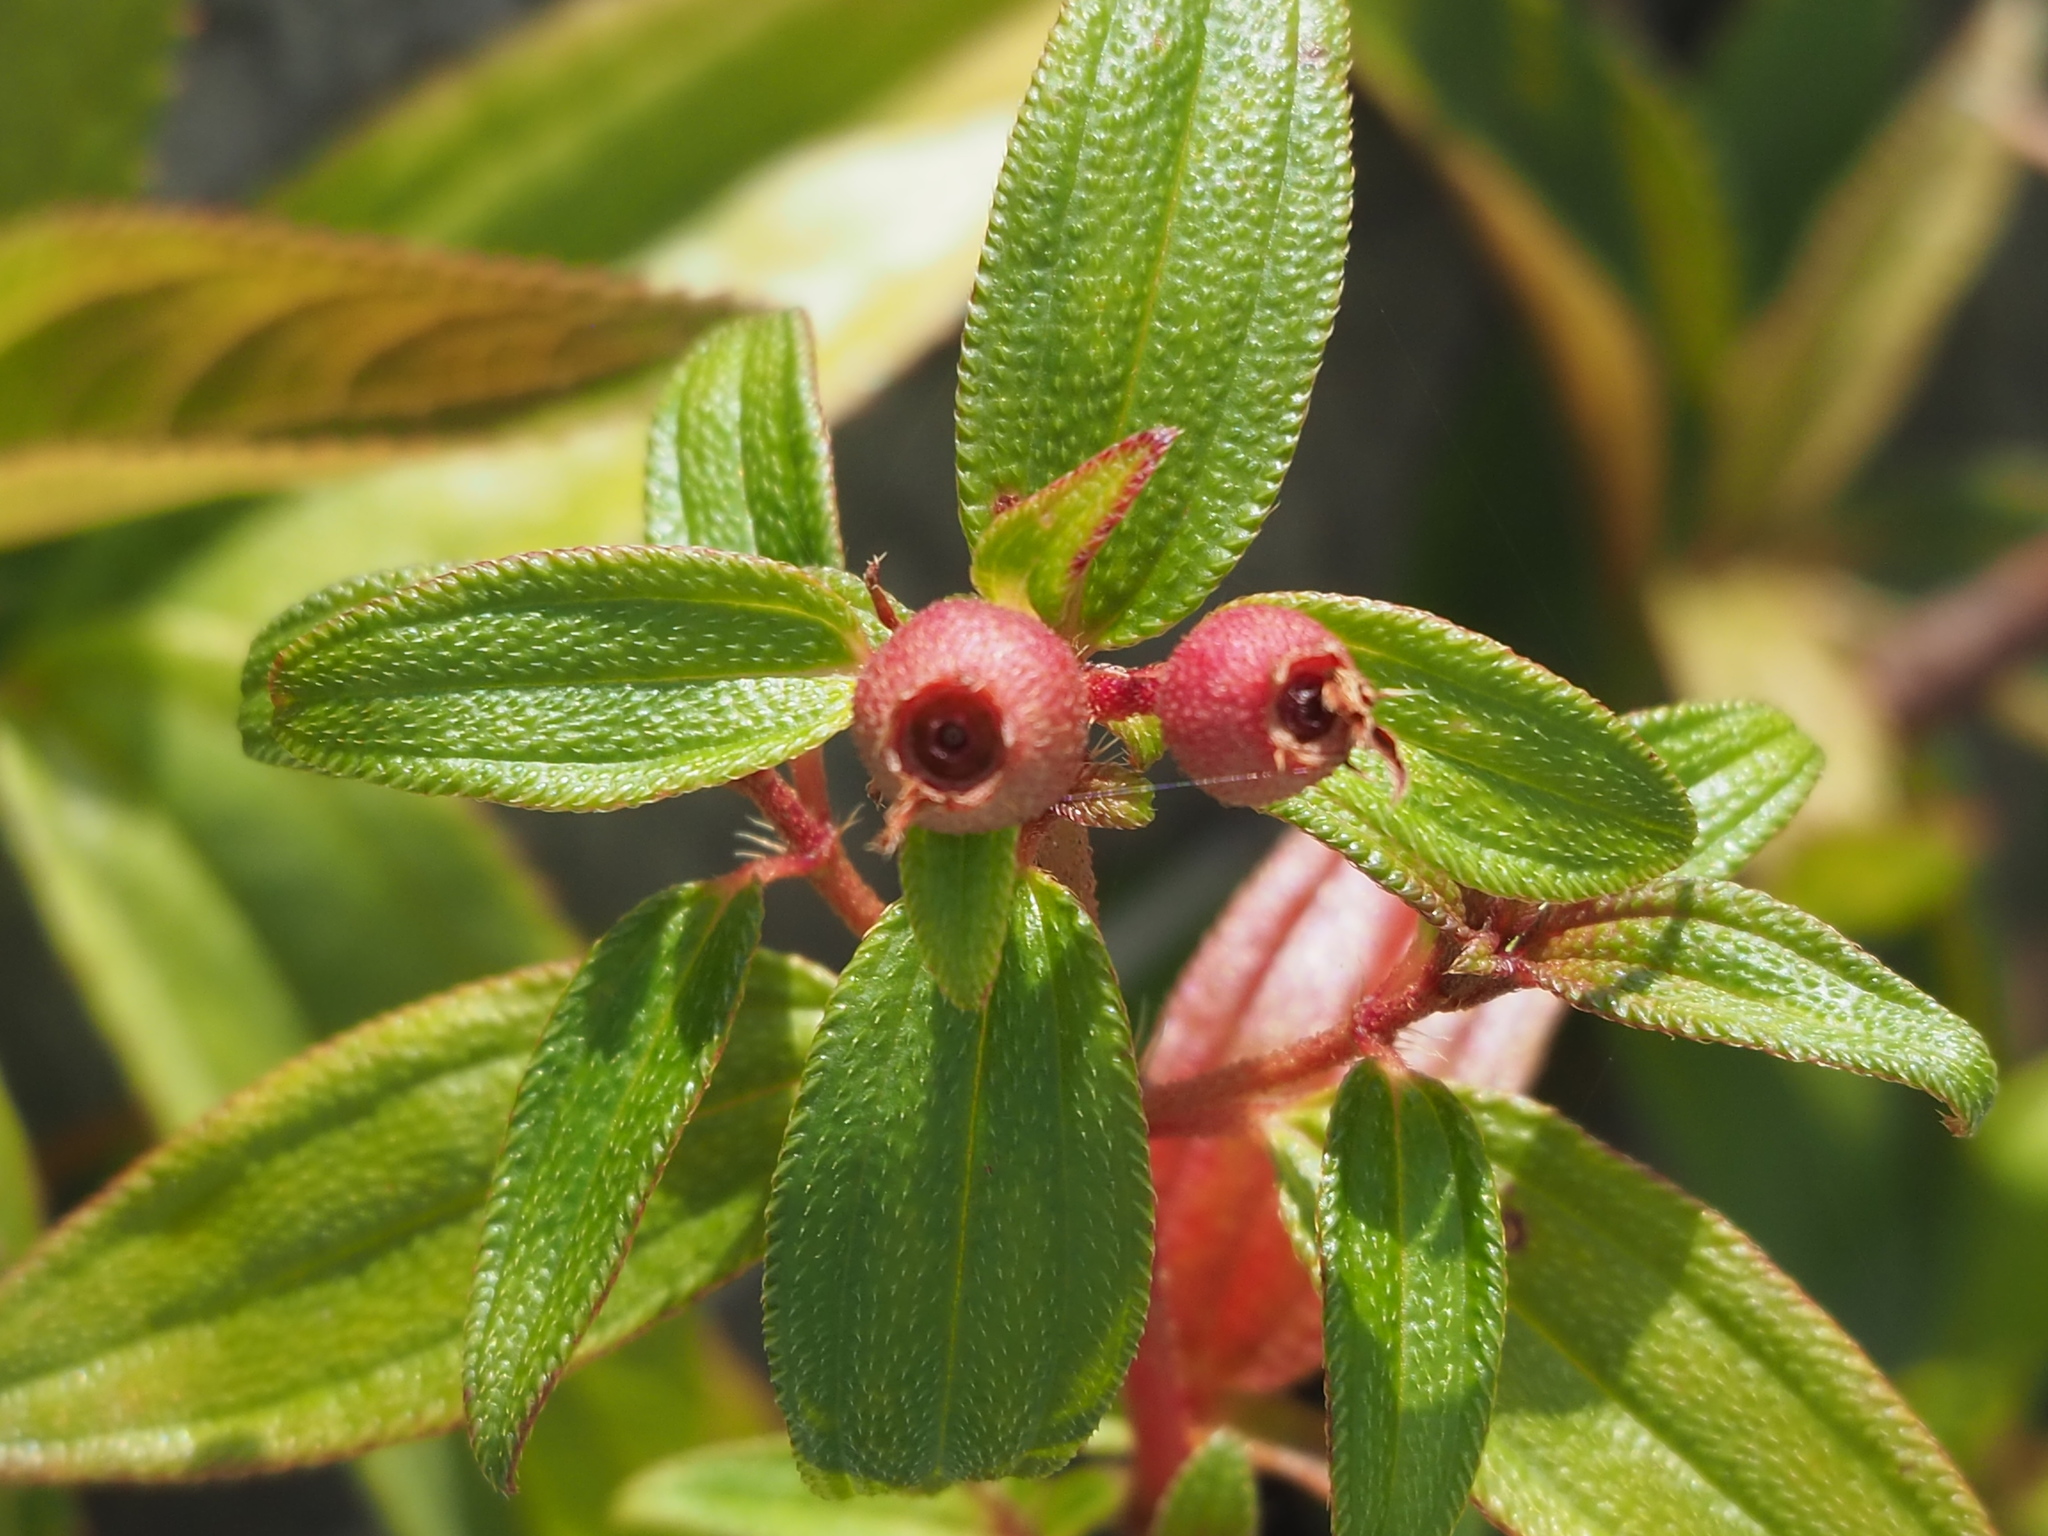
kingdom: Plantae
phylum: Tracheophyta
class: Magnoliopsida
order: Myrtales
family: Melastomataceae
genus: Melastoma
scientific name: Melastoma scaberrima
